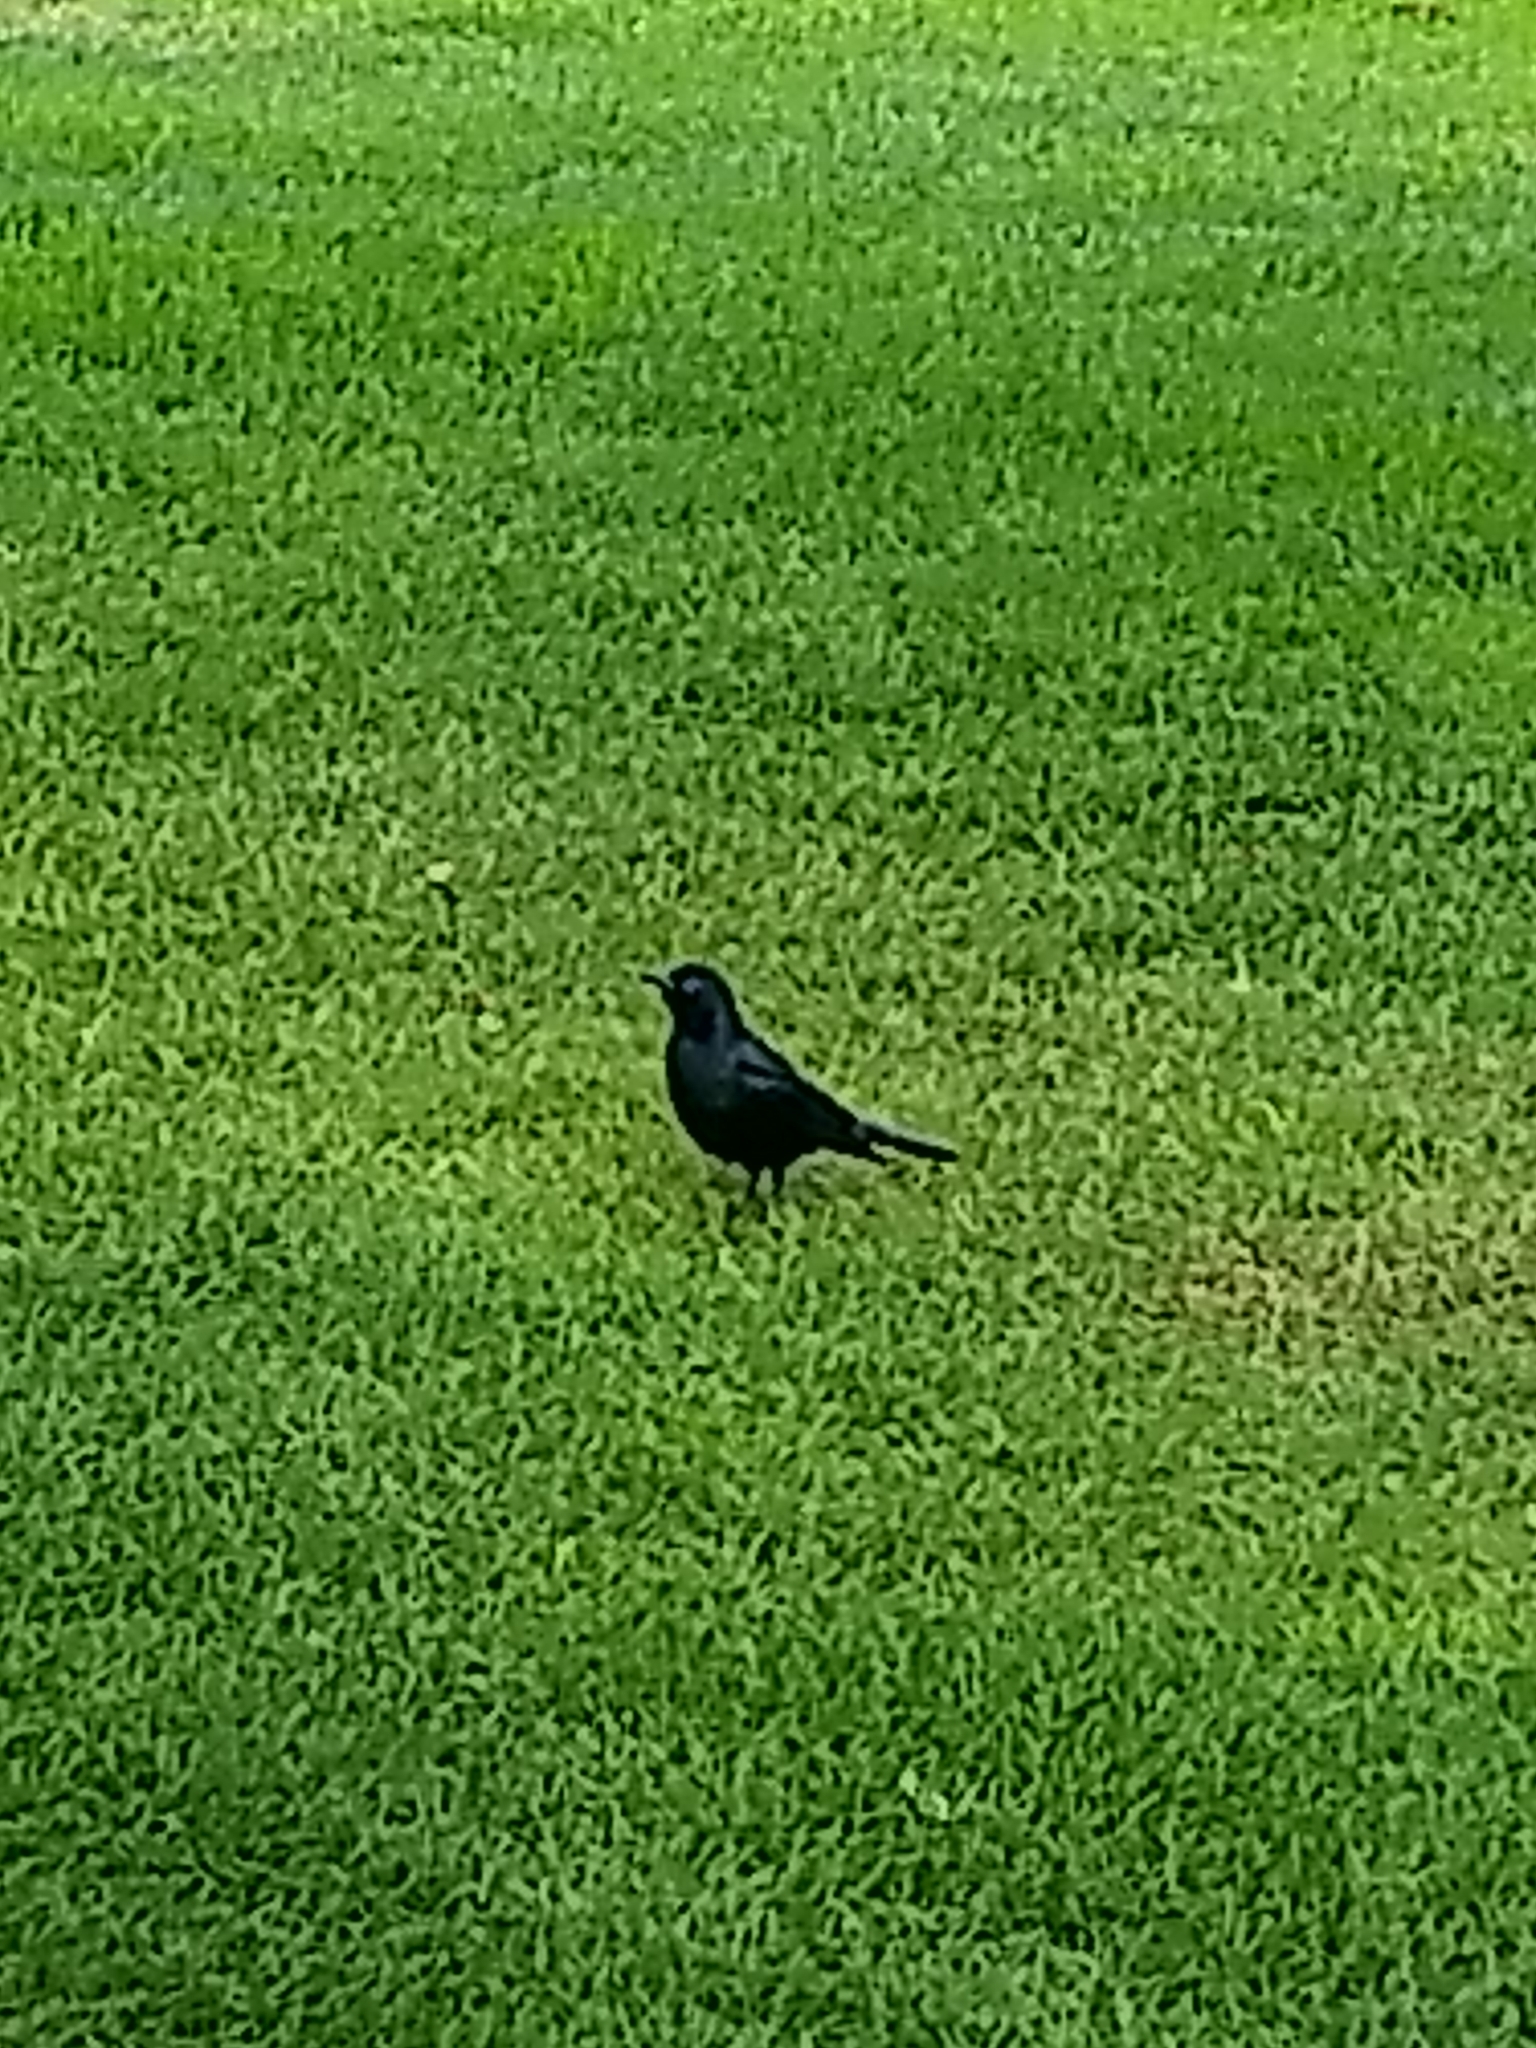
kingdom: Animalia
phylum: Chordata
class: Aves
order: Passeriformes
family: Icteridae
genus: Euphagus
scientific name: Euphagus cyanocephalus
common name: Brewer's blackbird
